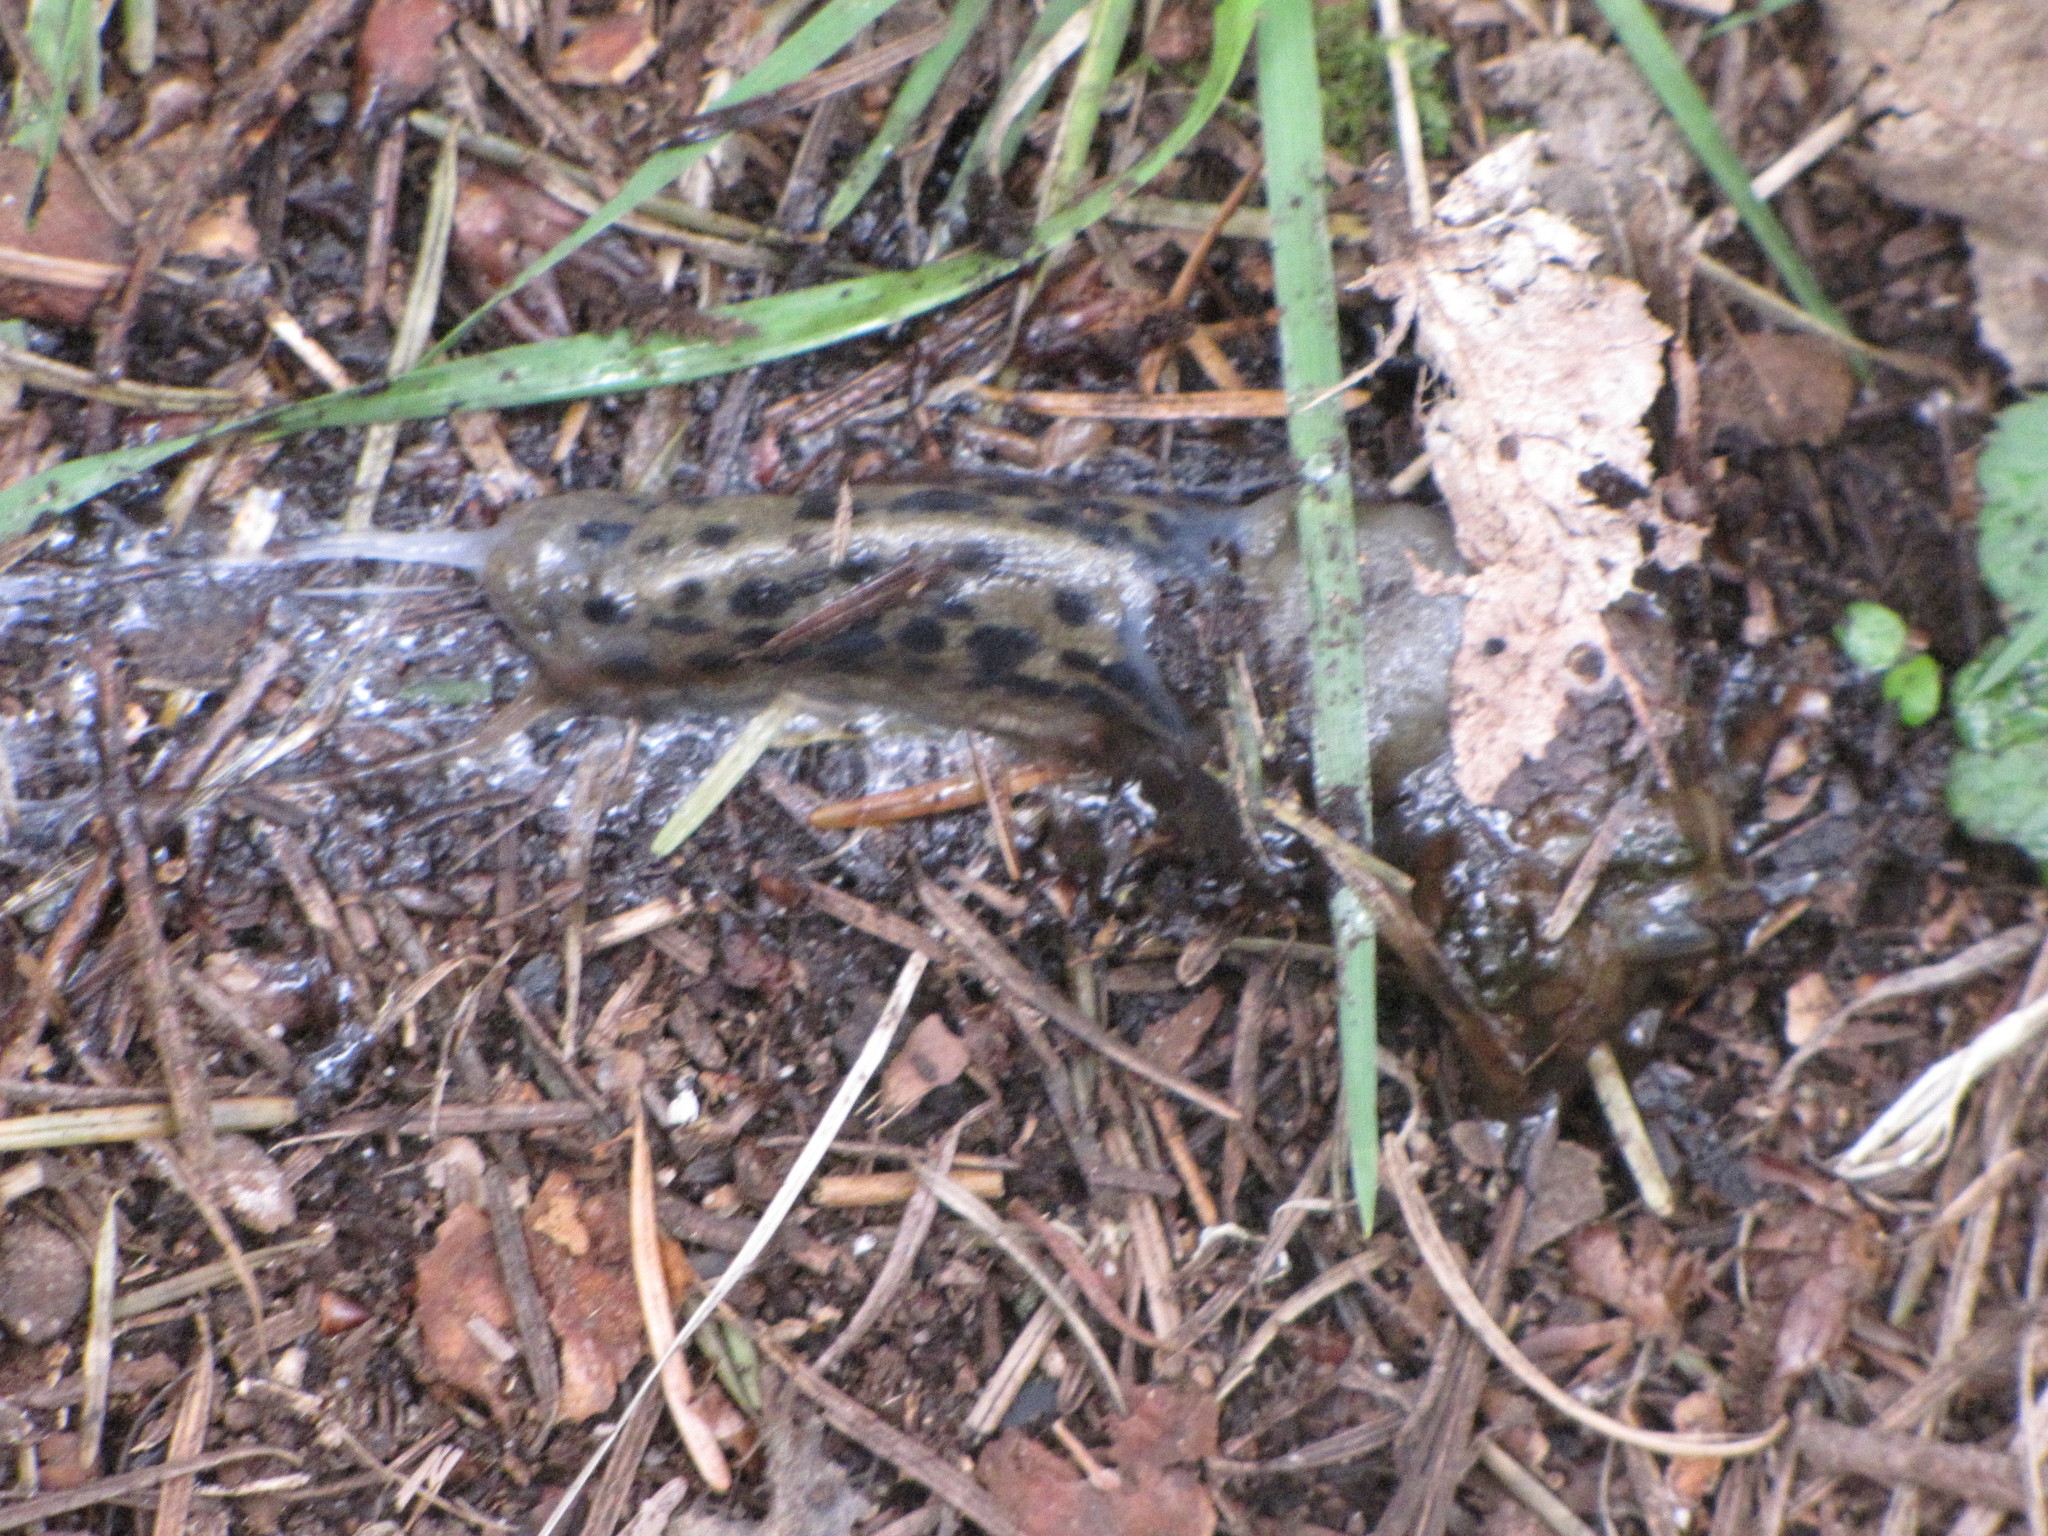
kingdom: Animalia
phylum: Mollusca
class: Gastropoda
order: Stylommatophora
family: Ariolimacidae
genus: Ariolimax
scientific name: Ariolimax columbianus
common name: Pacific banana slug
